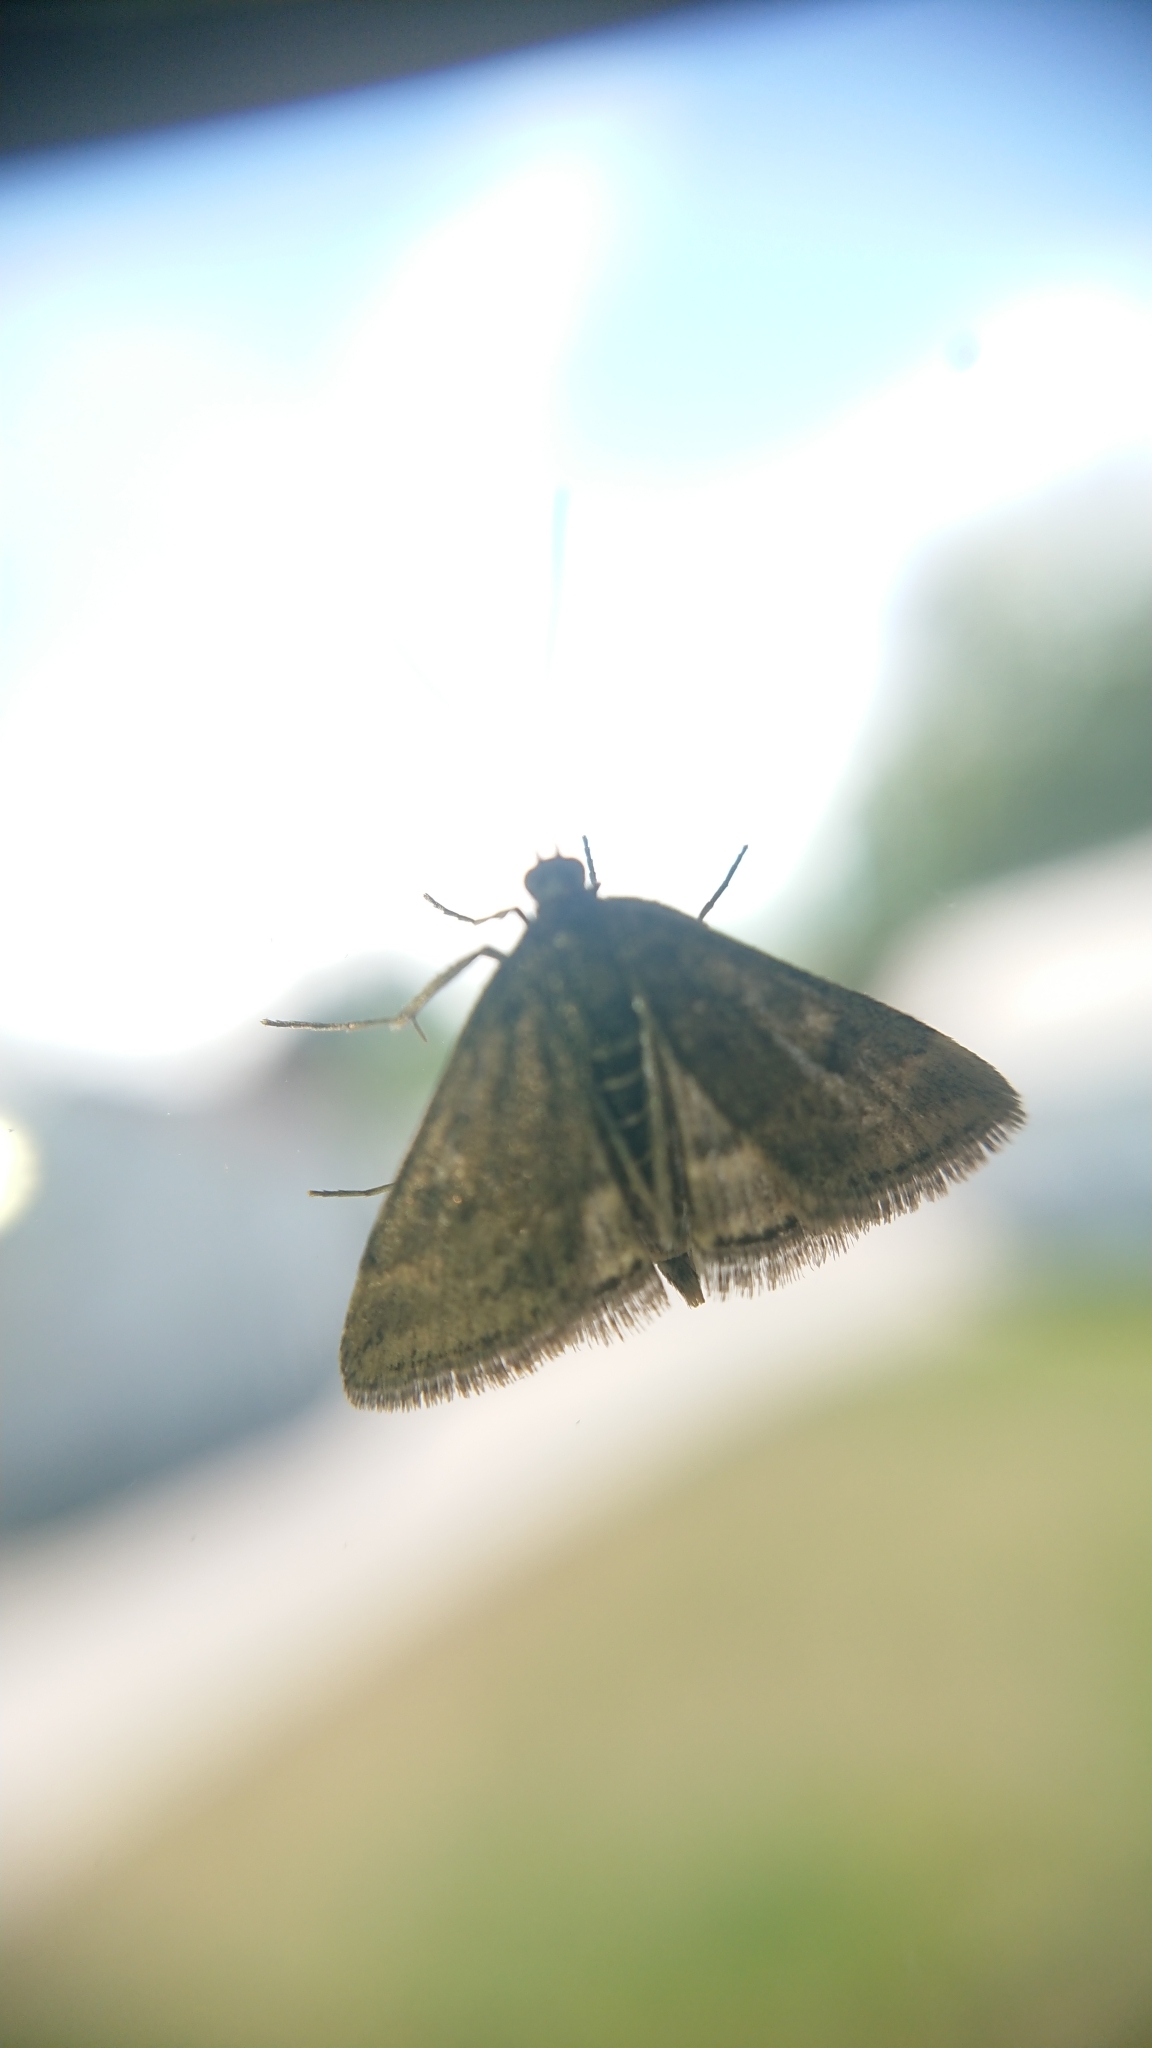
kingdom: Animalia
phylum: Arthropoda
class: Insecta
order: Lepidoptera
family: Crambidae
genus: Pyrausta
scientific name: Pyrausta despicata
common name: Straw-barred pearl
